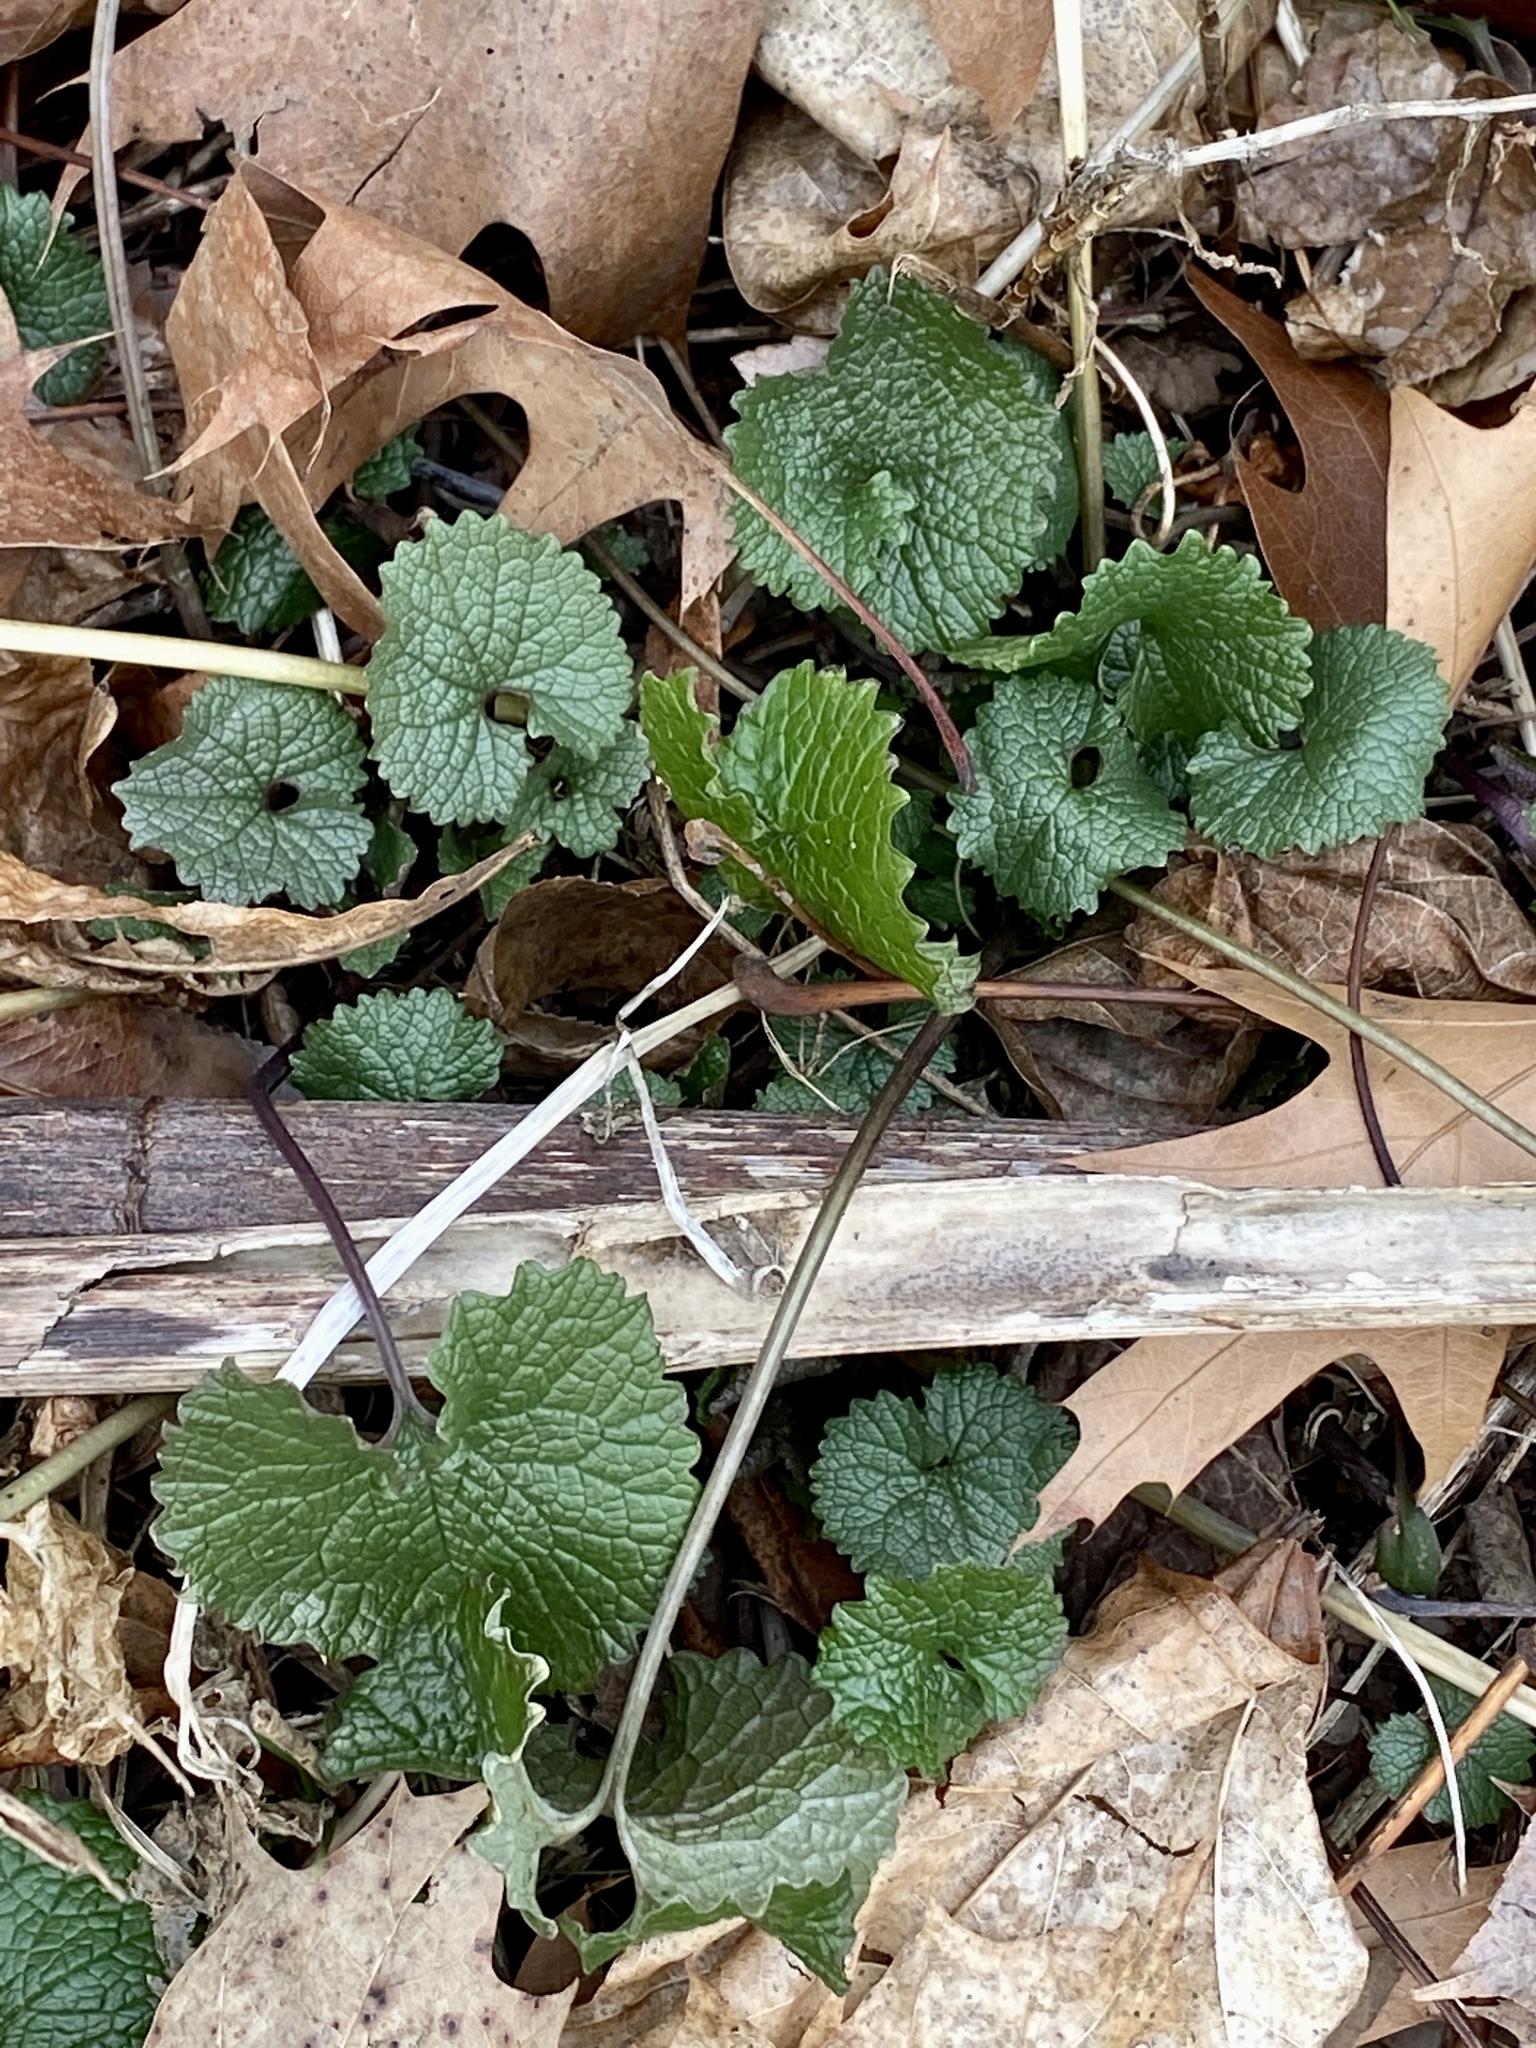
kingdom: Plantae
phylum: Tracheophyta
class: Magnoliopsida
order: Brassicales
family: Brassicaceae
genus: Alliaria
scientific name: Alliaria petiolata
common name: Garlic mustard
